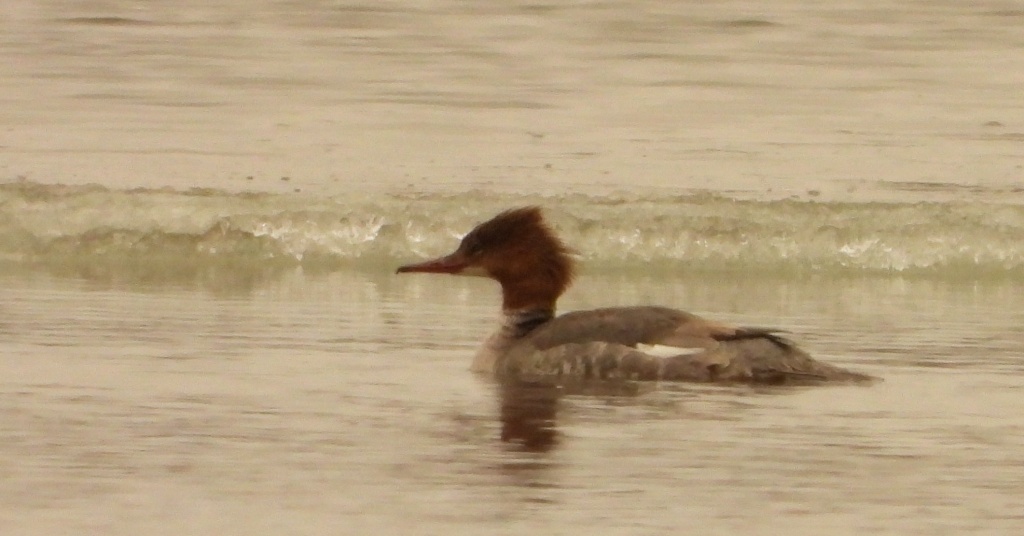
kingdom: Animalia
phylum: Chordata
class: Aves
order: Anseriformes
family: Anatidae
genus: Mergus
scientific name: Mergus merganser
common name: Common merganser
